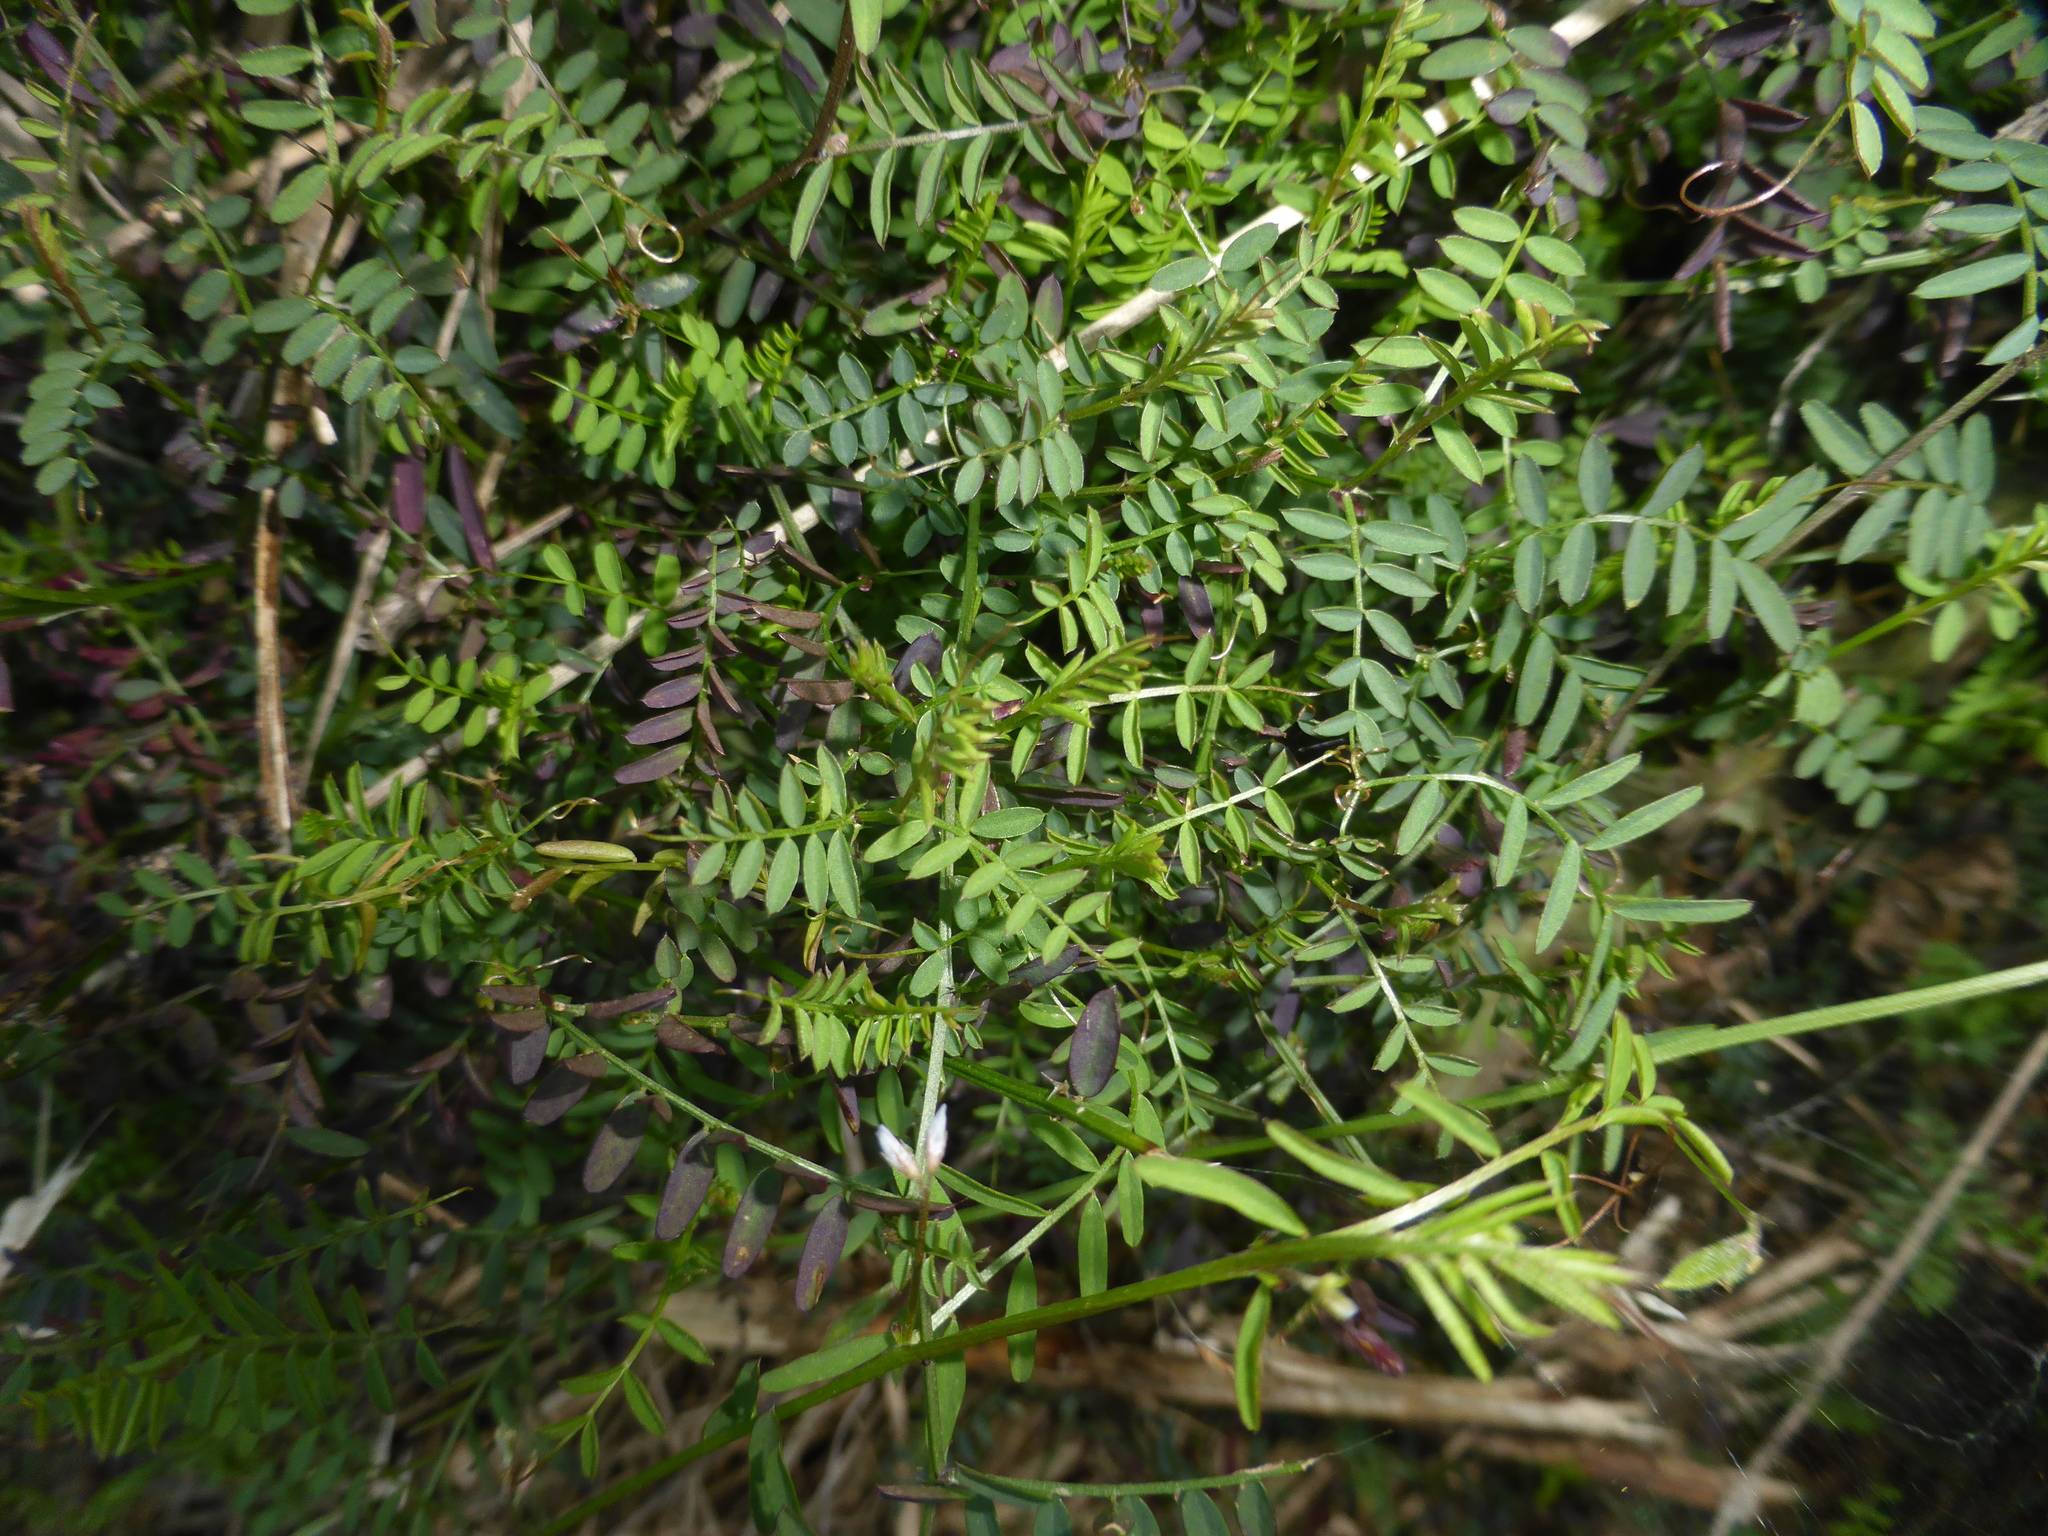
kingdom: Plantae
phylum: Tracheophyta
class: Magnoliopsida
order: Fabales
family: Fabaceae
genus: Vicia
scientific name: Vicia hirsuta
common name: Tiny vetch
